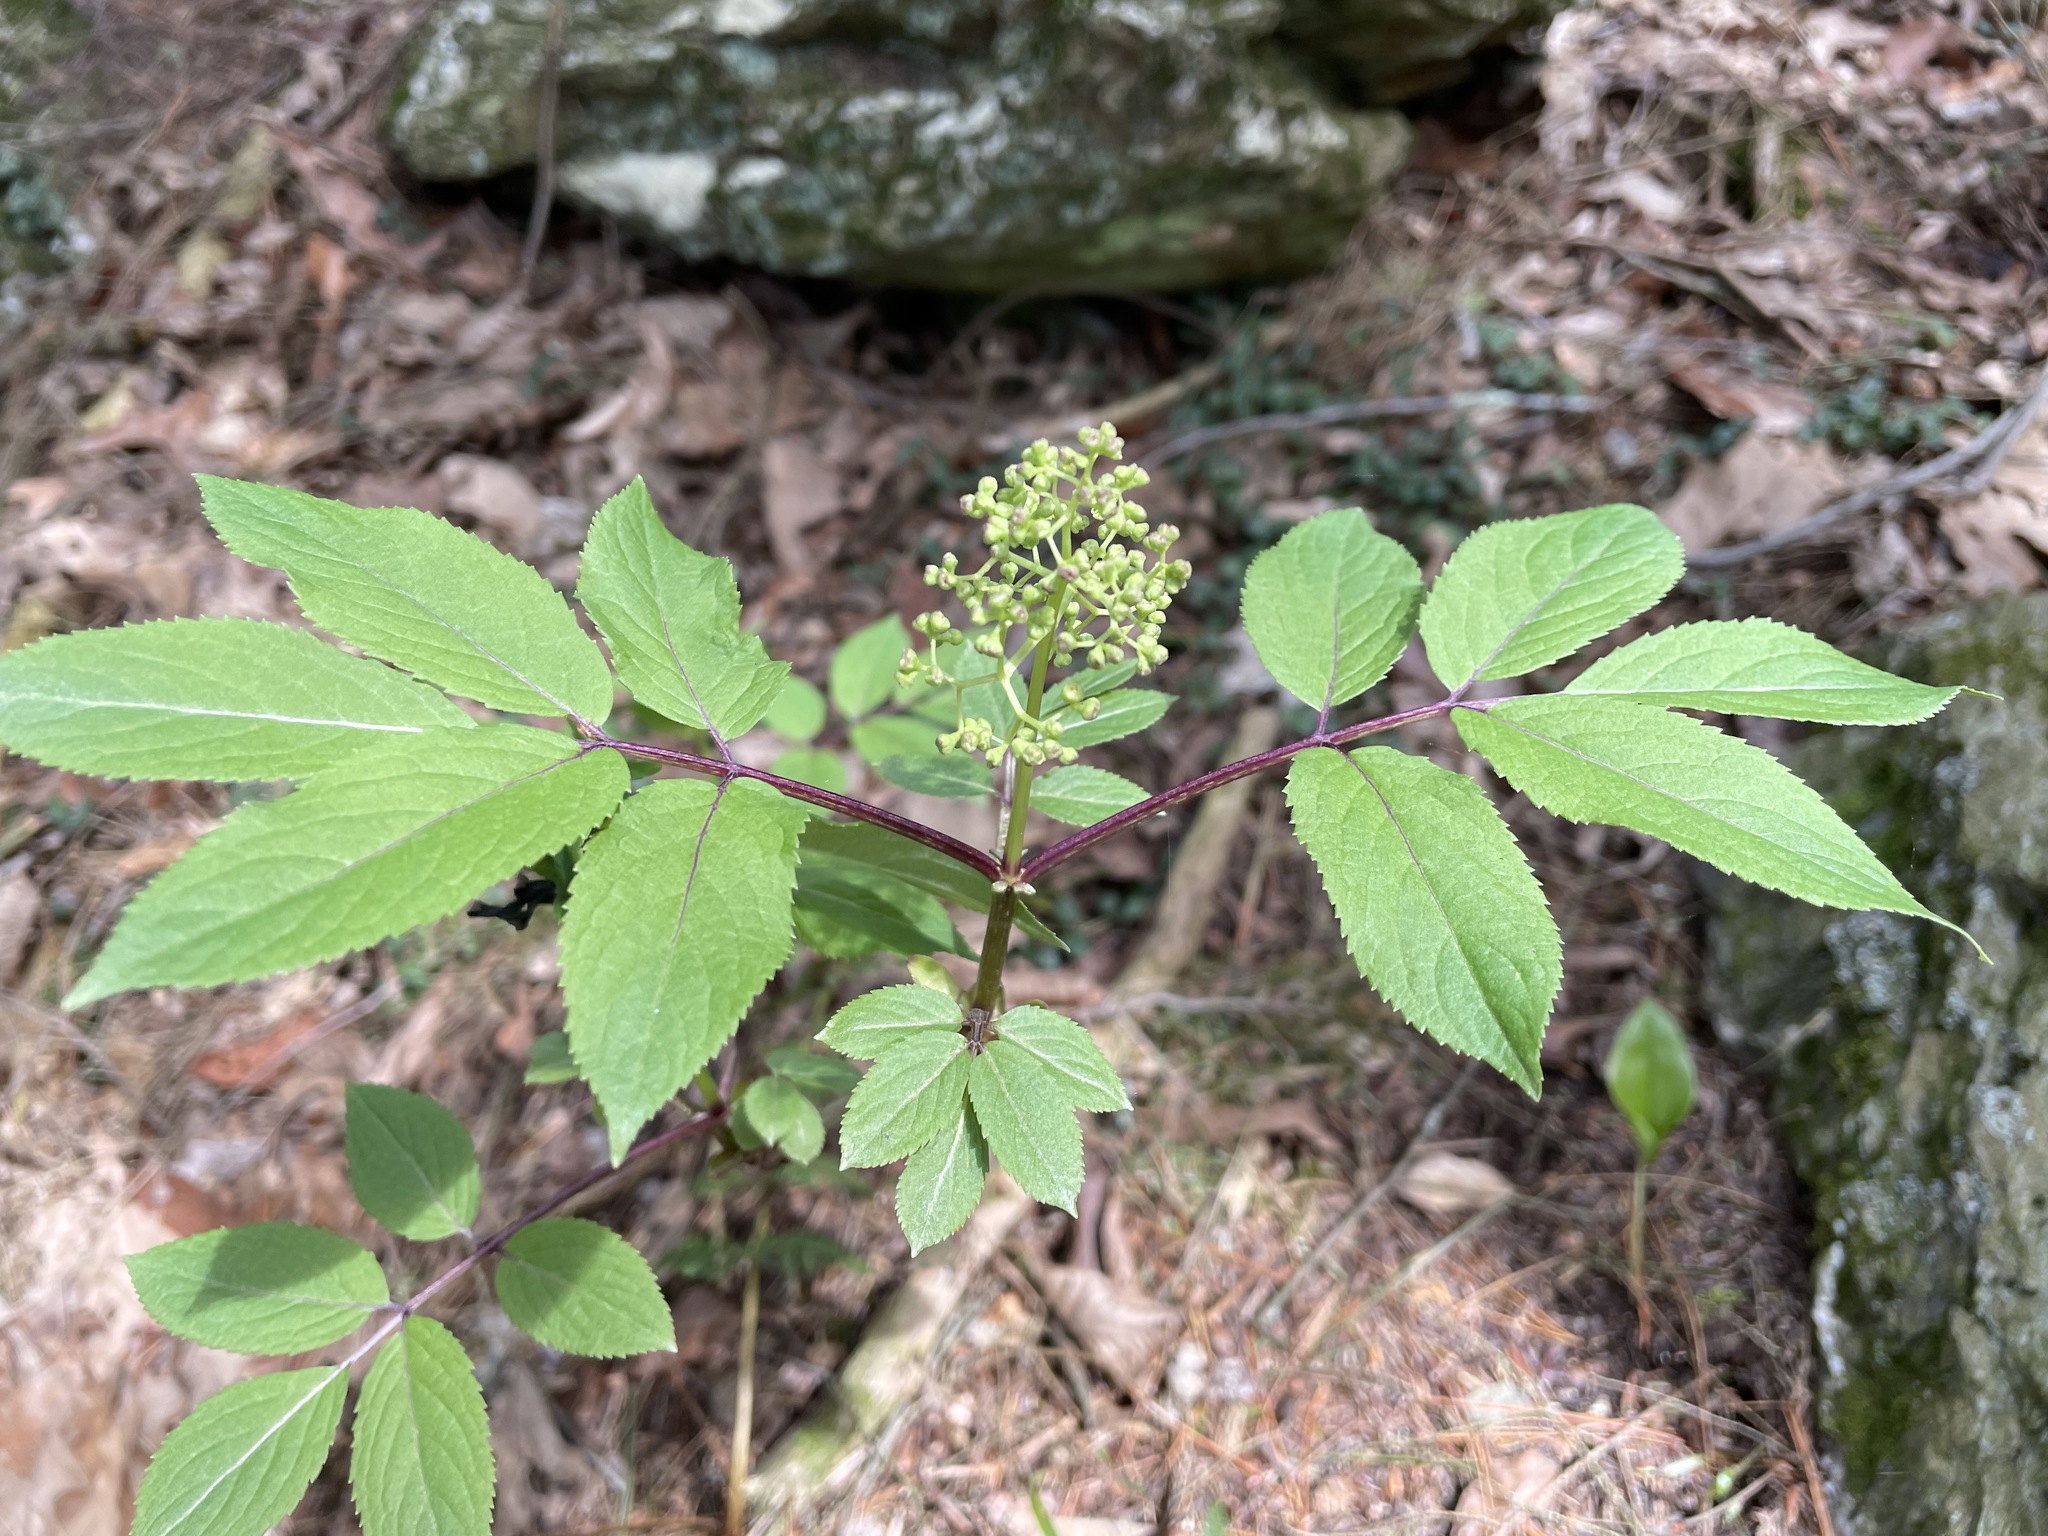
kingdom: Plantae
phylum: Tracheophyta
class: Magnoliopsida
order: Dipsacales
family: Viburnaceae
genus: Sambucus
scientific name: Sambucus racemosa
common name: Red-berried elder
